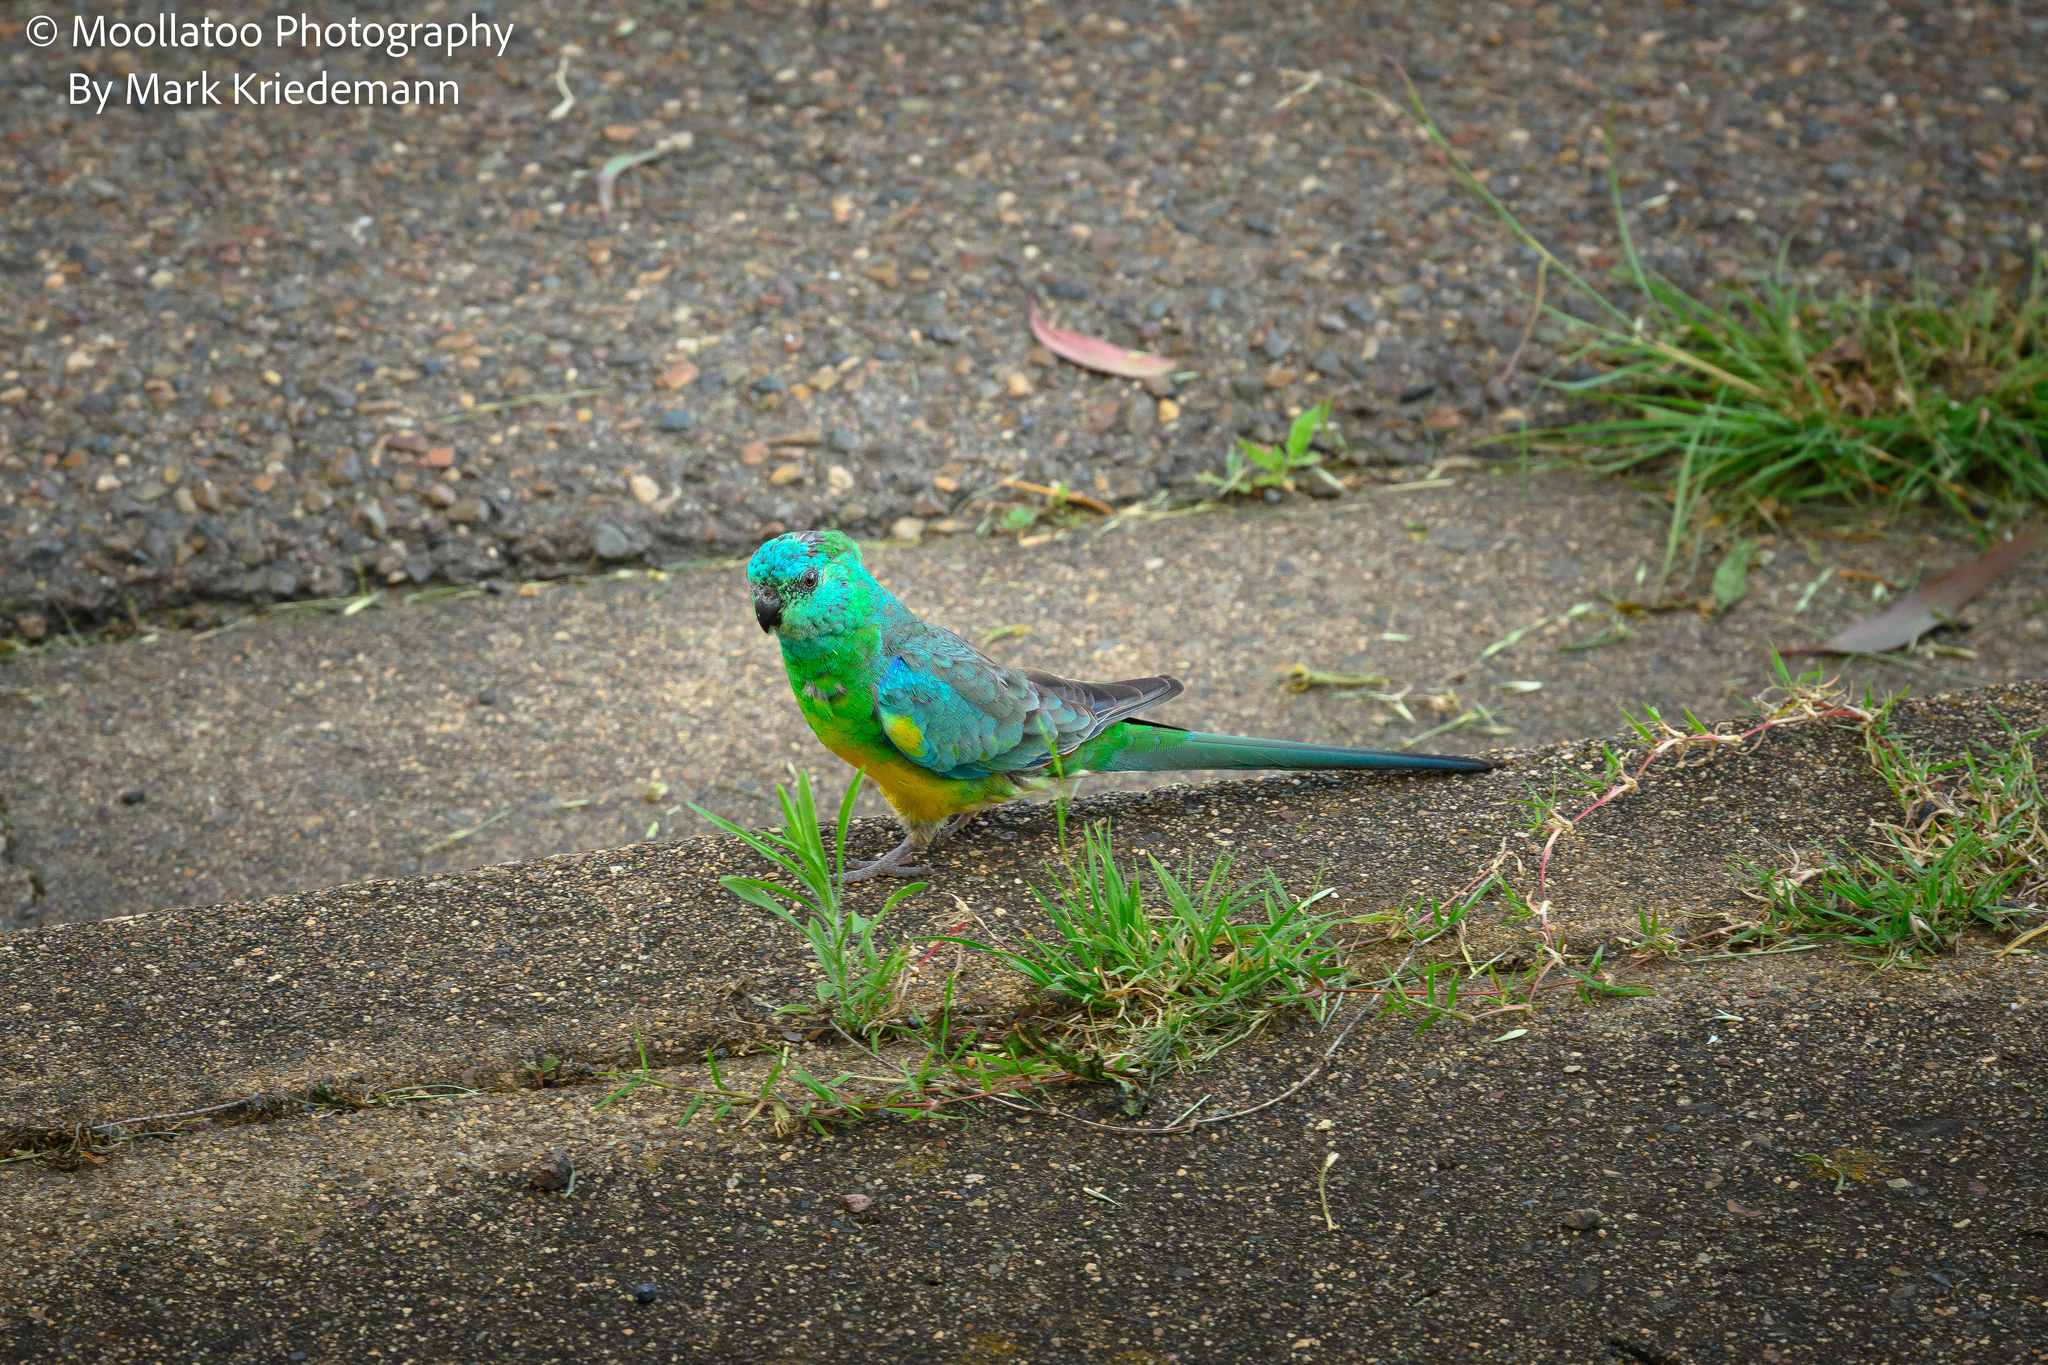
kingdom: Animalia
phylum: Chordata
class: Aves
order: Psittaciformes
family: Psittacidae
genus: Psephotus
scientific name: Psephotus haematonotus
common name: Red-rumped parrot
